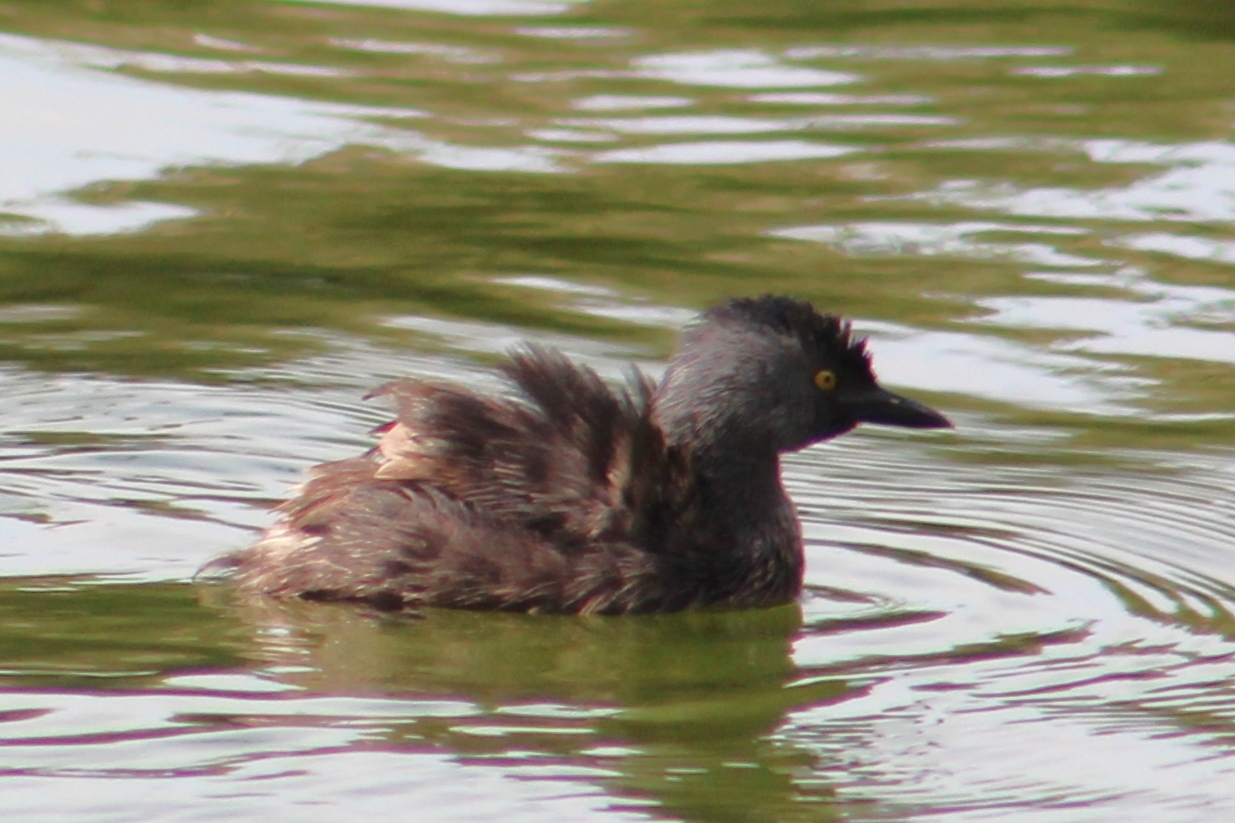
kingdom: Animalia
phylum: Chordata
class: Aves
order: Podicipediformes
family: Podicipedidae
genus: Tachybaptus
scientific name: Tachybaptus dominicus
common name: Least grebe
